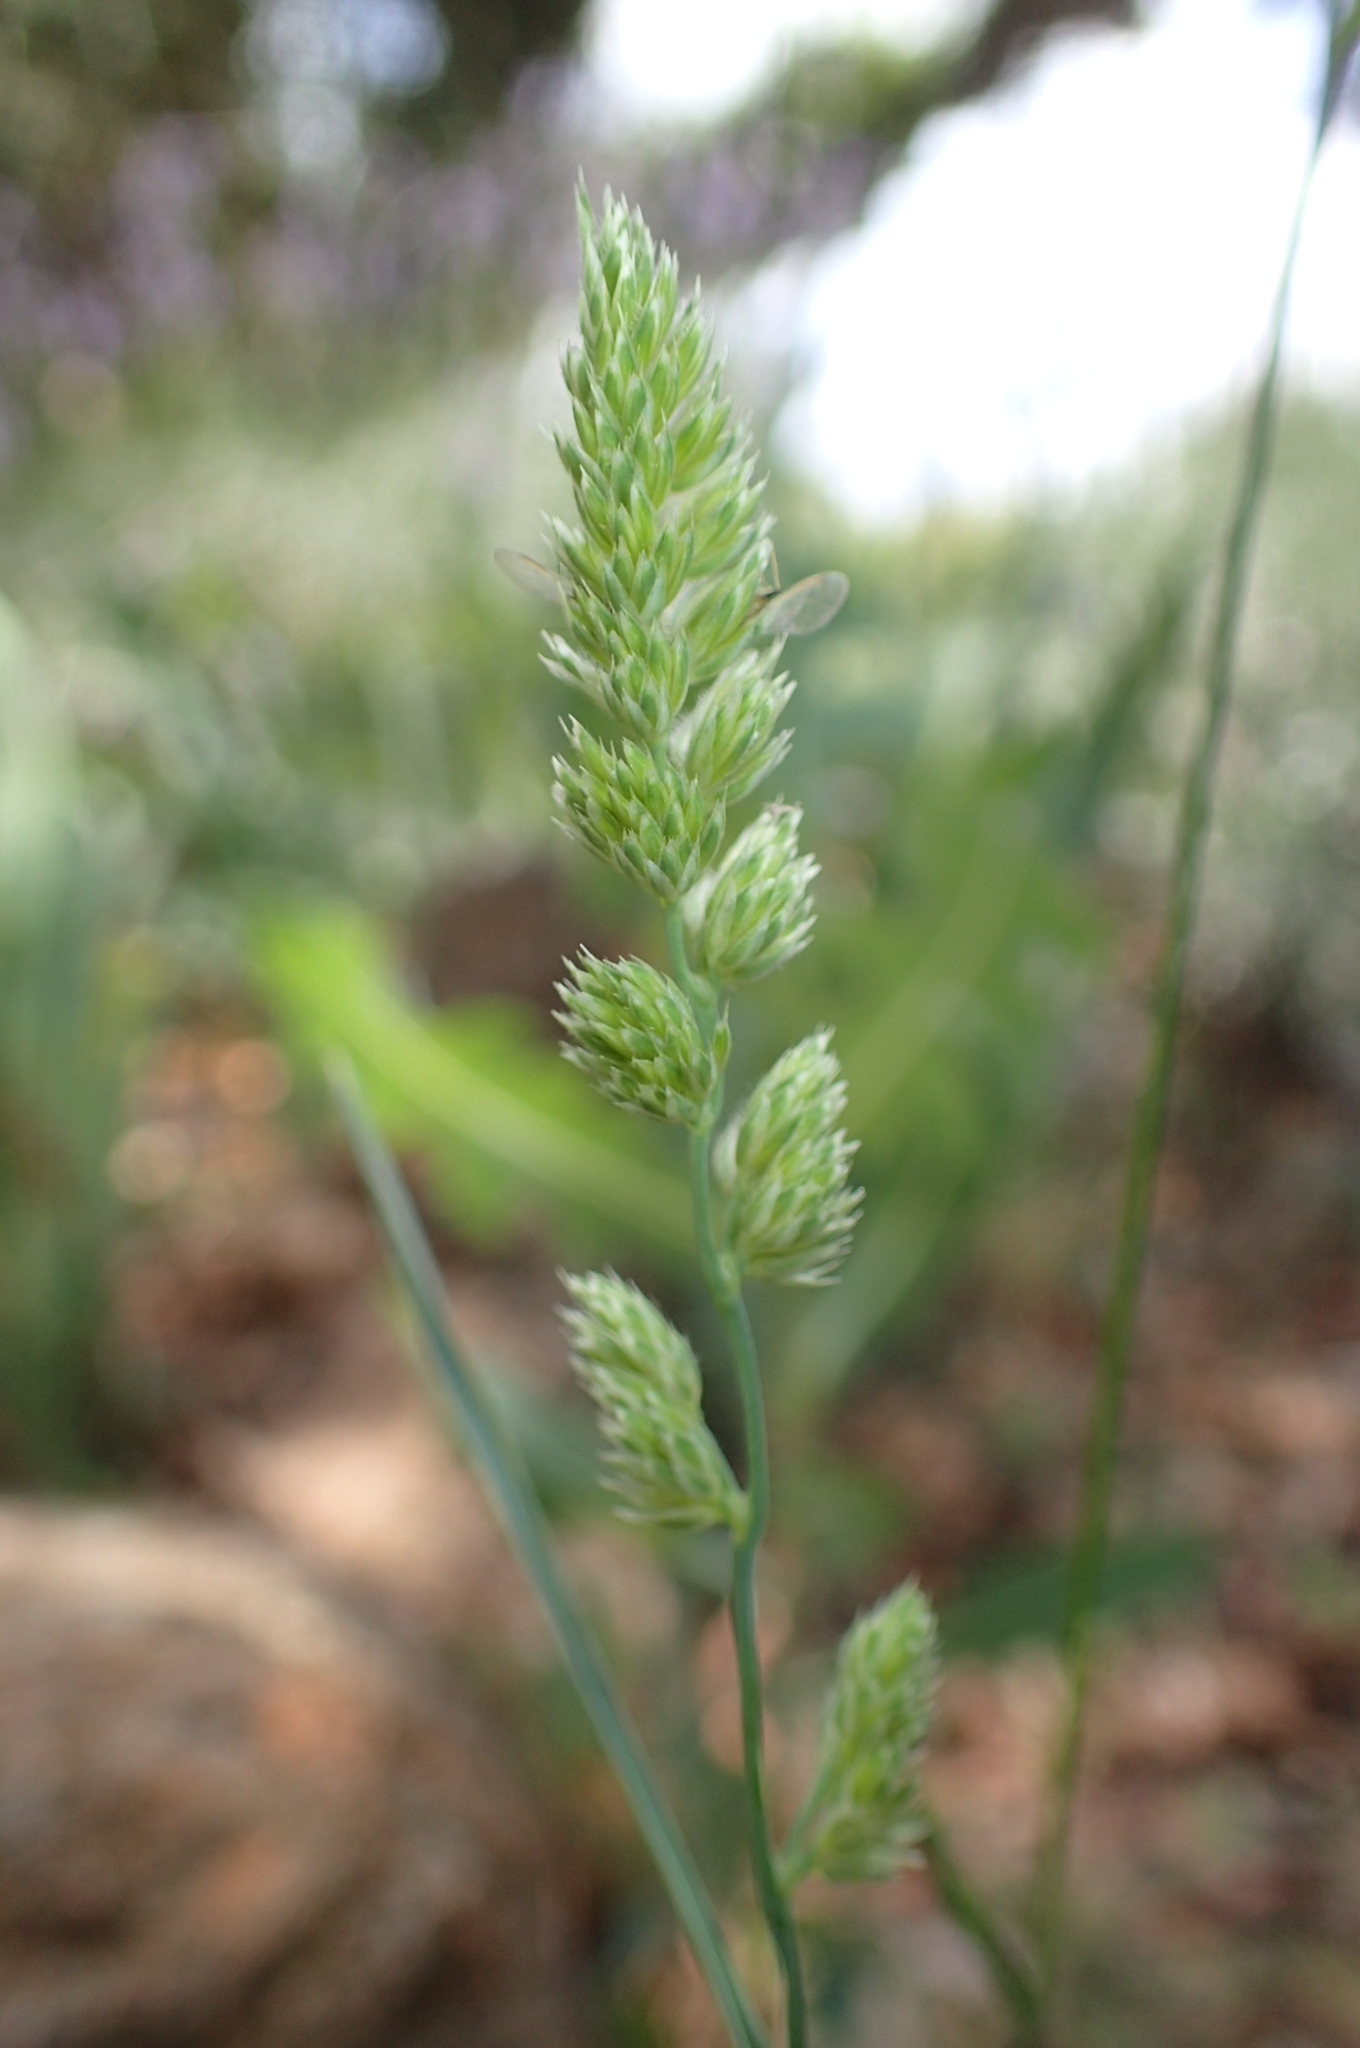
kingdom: Plantae
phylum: Tracheophyta
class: Liliopsida
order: Poales
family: Poaceae
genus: Dactylis
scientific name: Dactylis glomerata
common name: Orchardgrass
